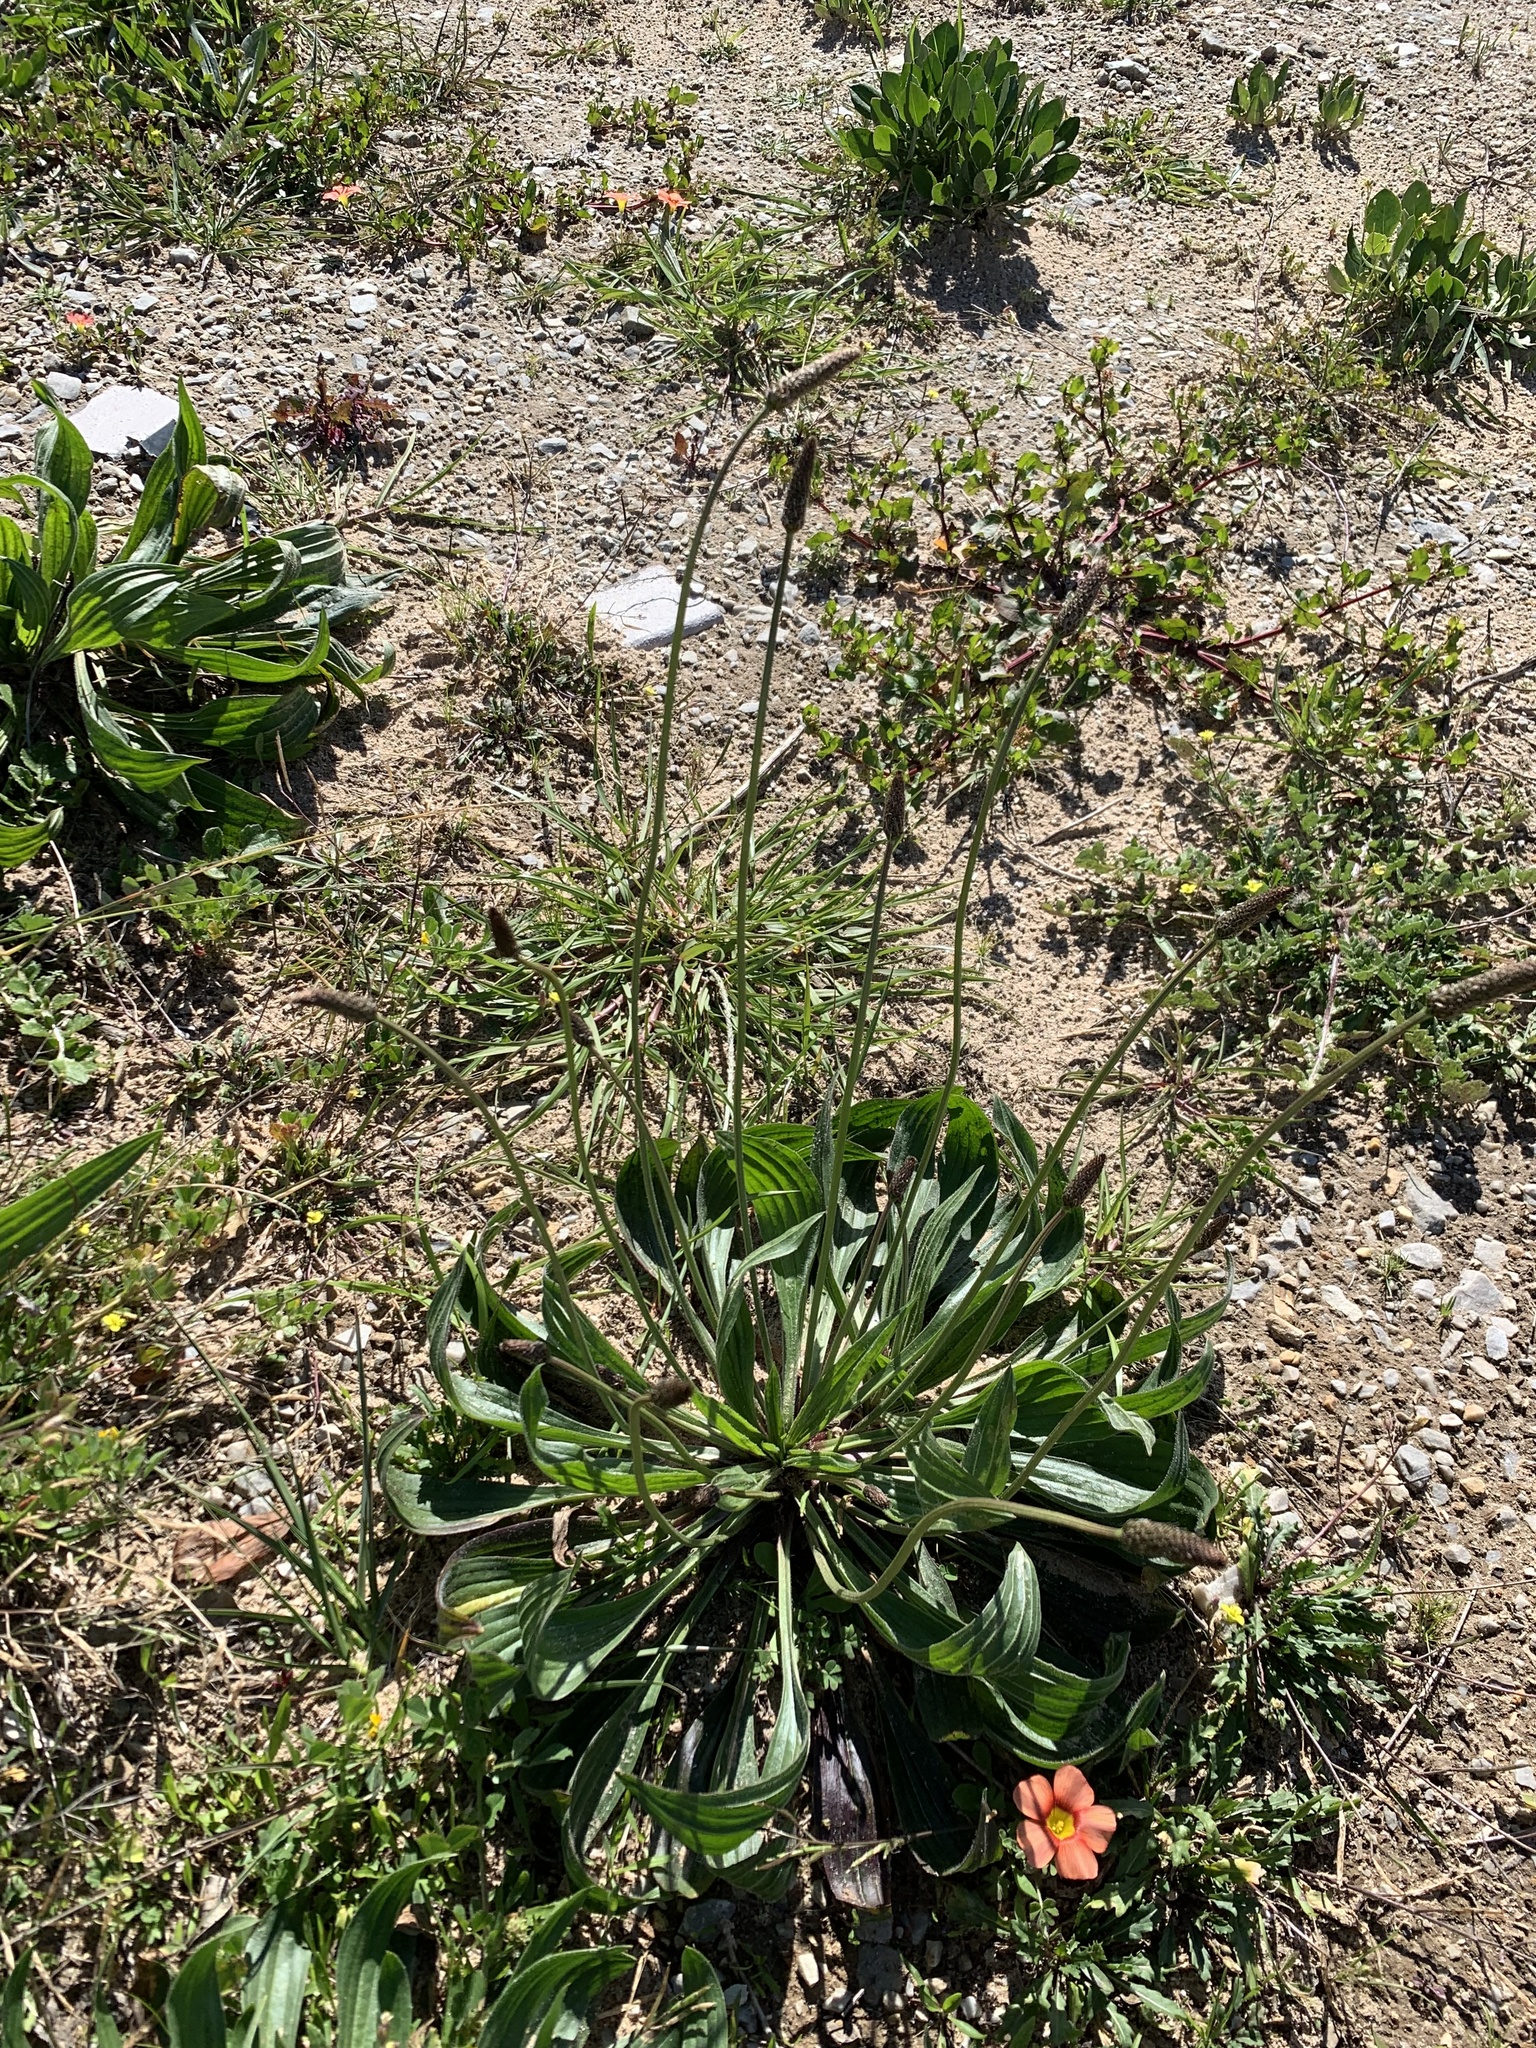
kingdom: Plantae
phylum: Tracheophyta
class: Magnoliopsida
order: Lamiales
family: Plantaginaceae
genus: Plantago
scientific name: Plantago lanceolata
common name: Ribwort plantain
